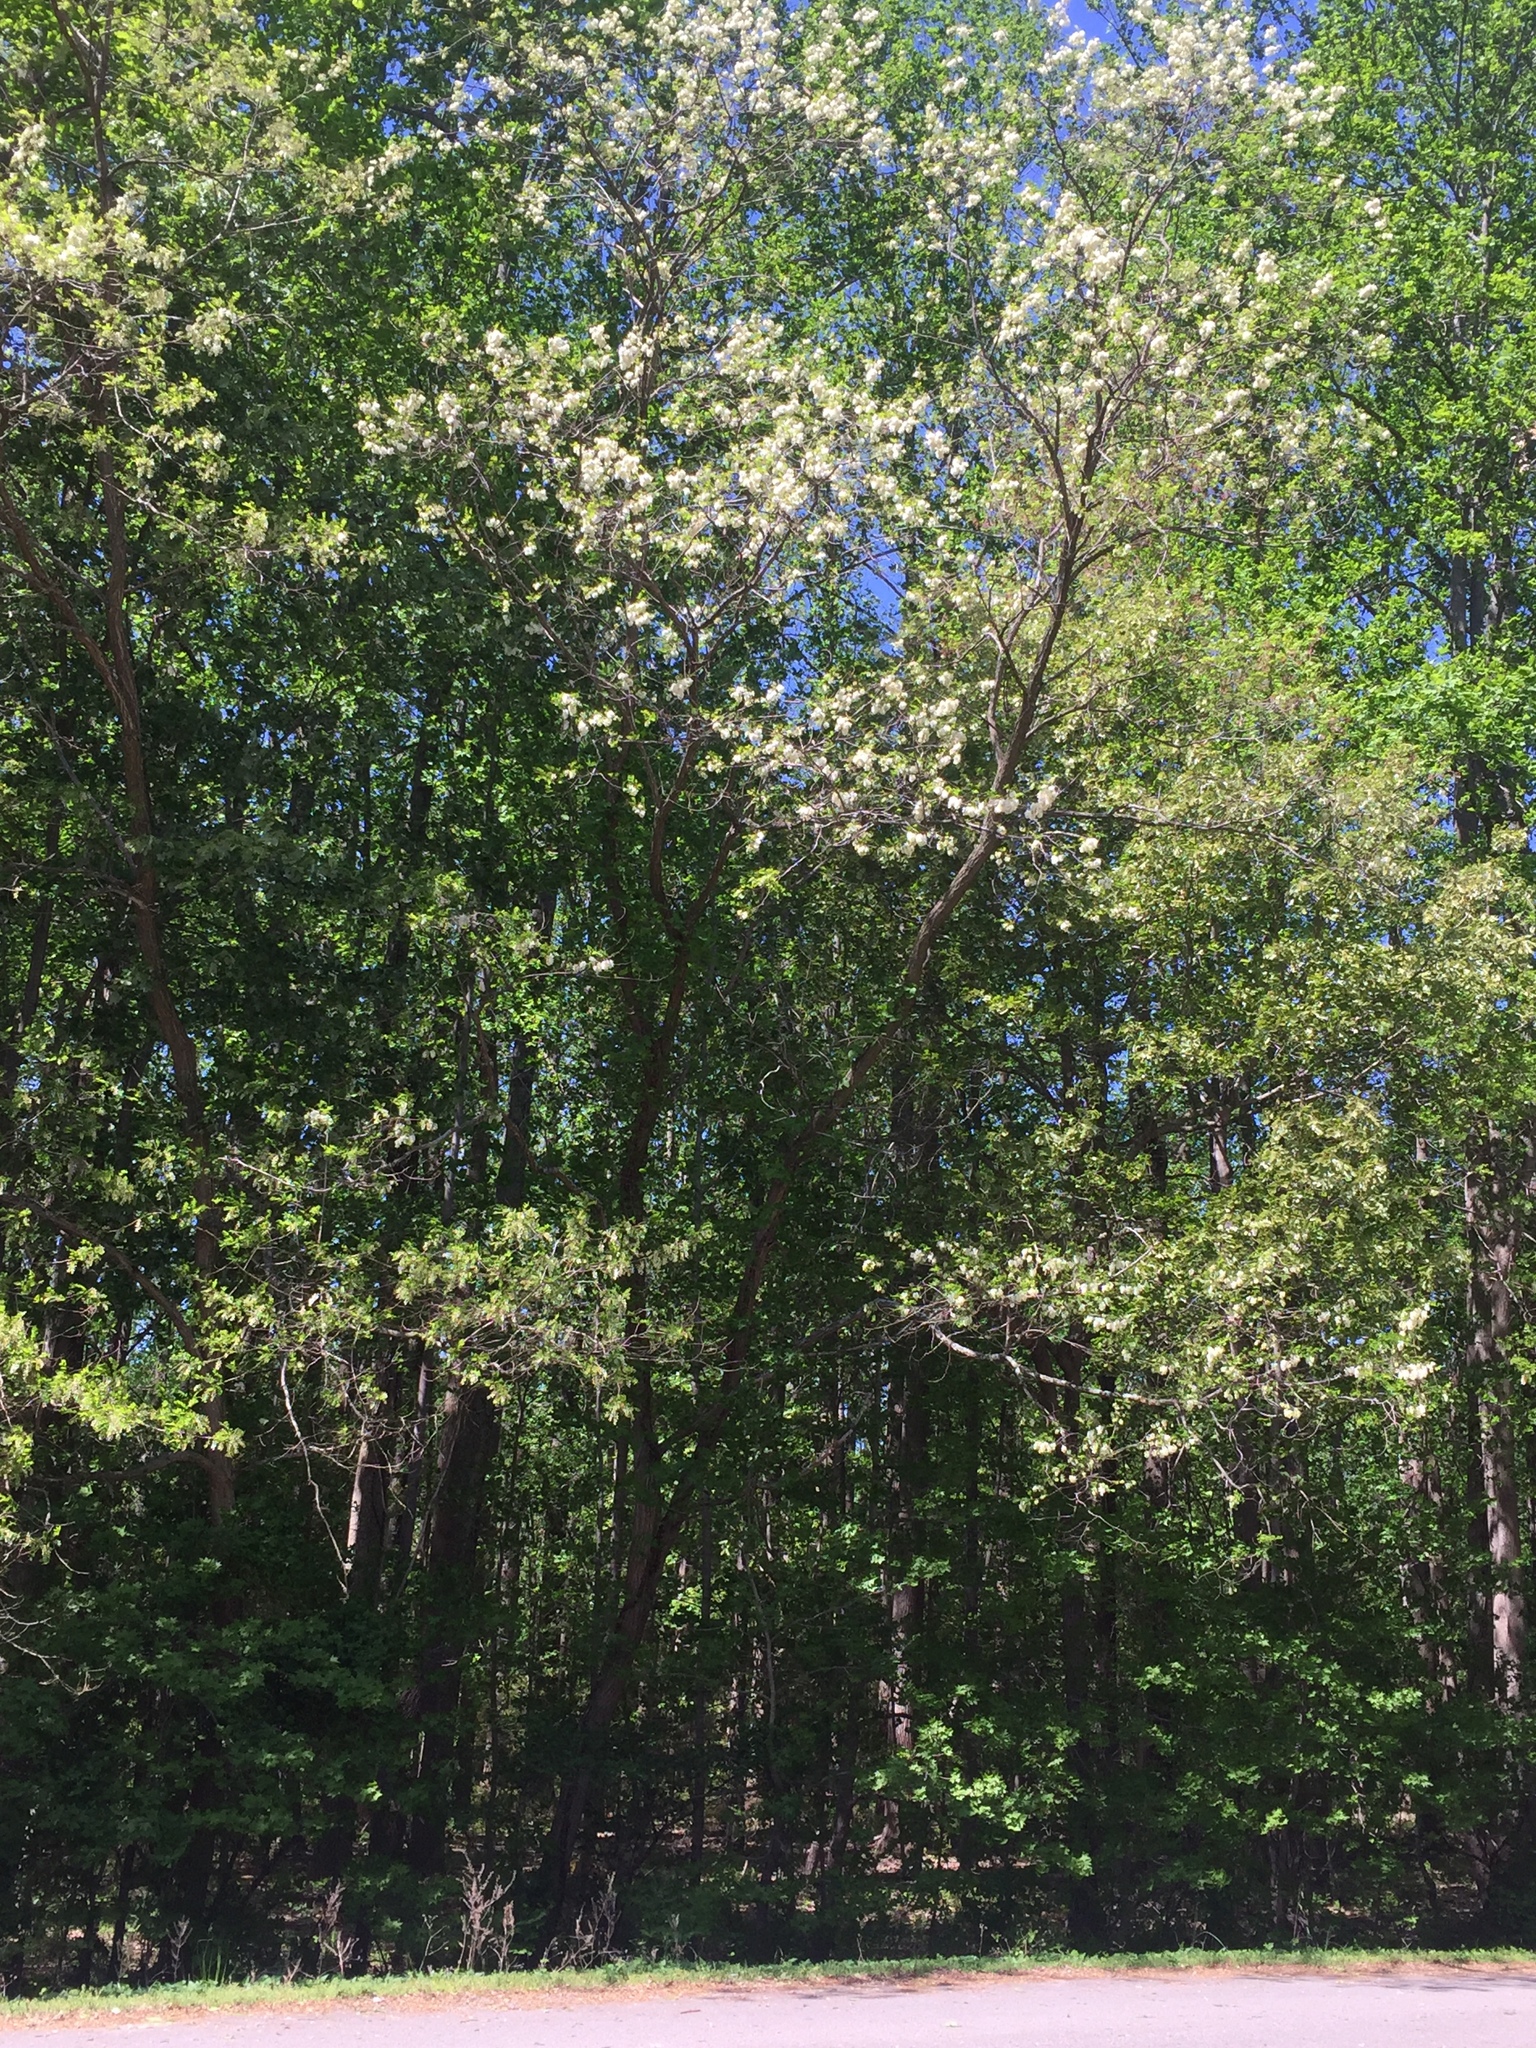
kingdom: Plantae
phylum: Tracheophyta
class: Magnoliopsida
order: Fabales
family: Fabaceae
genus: Robinia
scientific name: Robinia pseudoacacia
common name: Black locust
